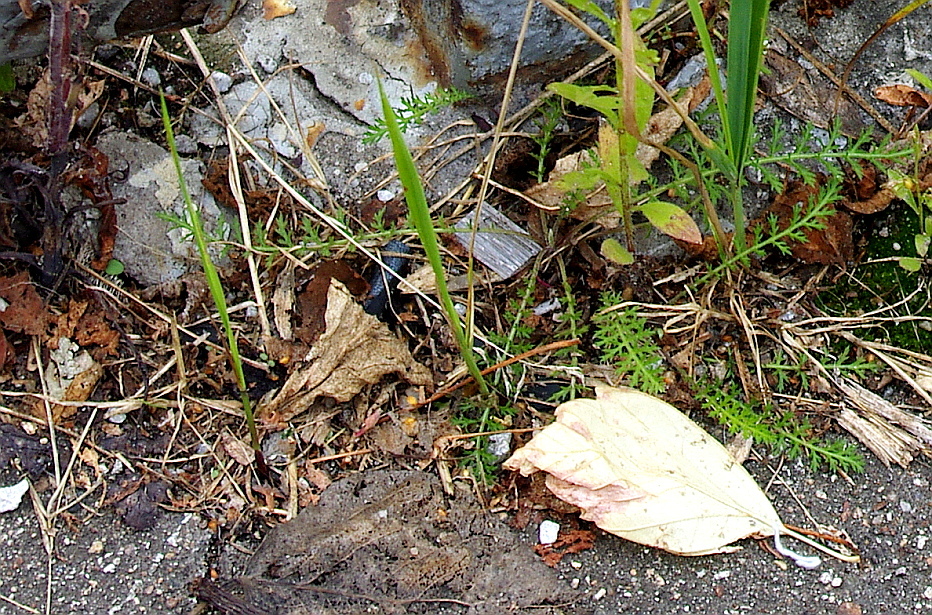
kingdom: Plantae
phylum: Tracheophyta
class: Magnoliopsida
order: Asterales
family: Asteraceae
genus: Achillea
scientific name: Achillea millefolium
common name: Yarrow
